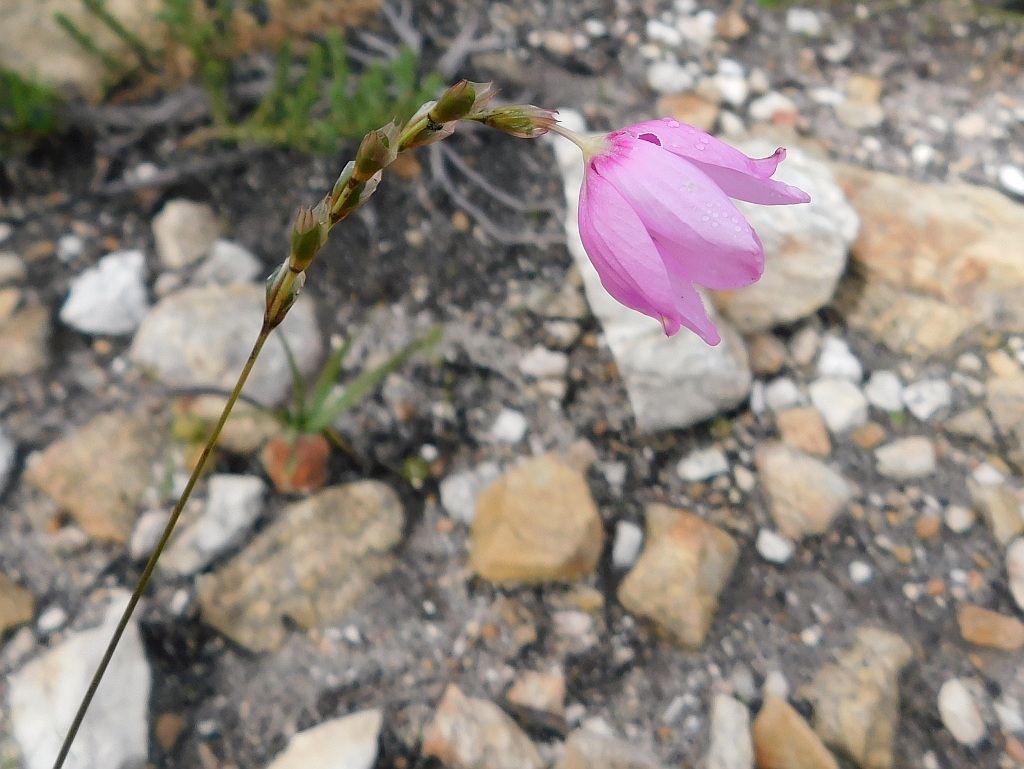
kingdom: Plantae
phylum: Tracheophyta
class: Liliopsida
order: Asparagales
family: Iridaceae
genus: Ixia
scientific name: Ixia micrandra
